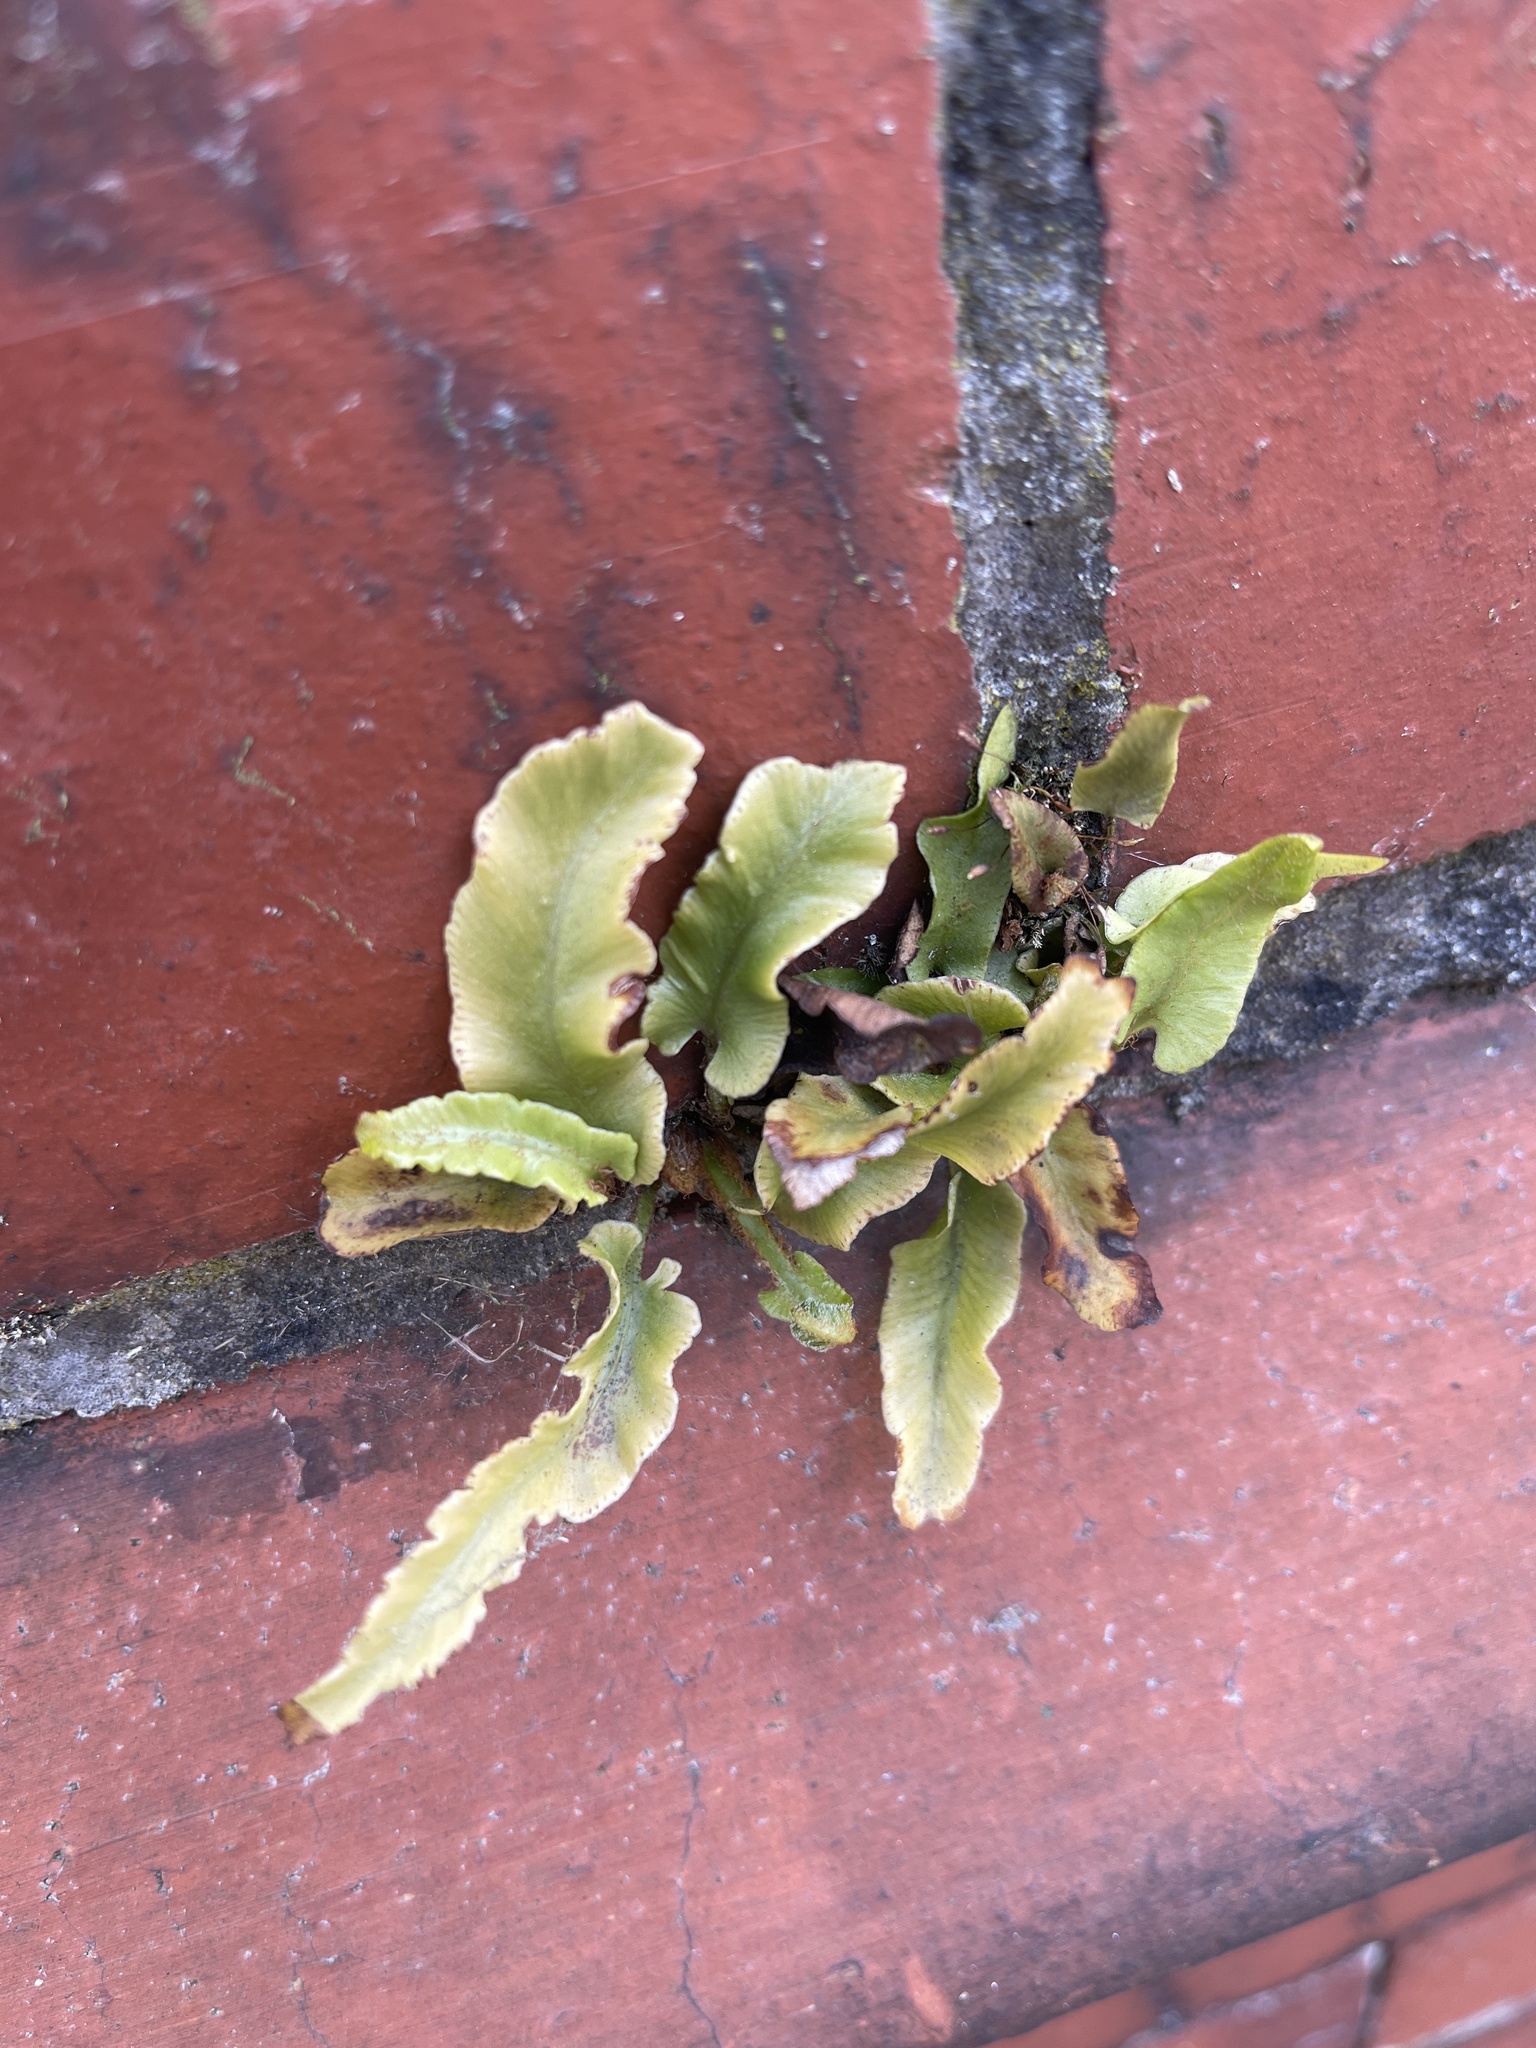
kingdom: Plantae
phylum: Tracheophyta
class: Polypodiopsida
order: Polypodiales
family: Aspleniaceae
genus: Asplenium
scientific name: Asplenium scolopendrium
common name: Hart's-tongue fern
